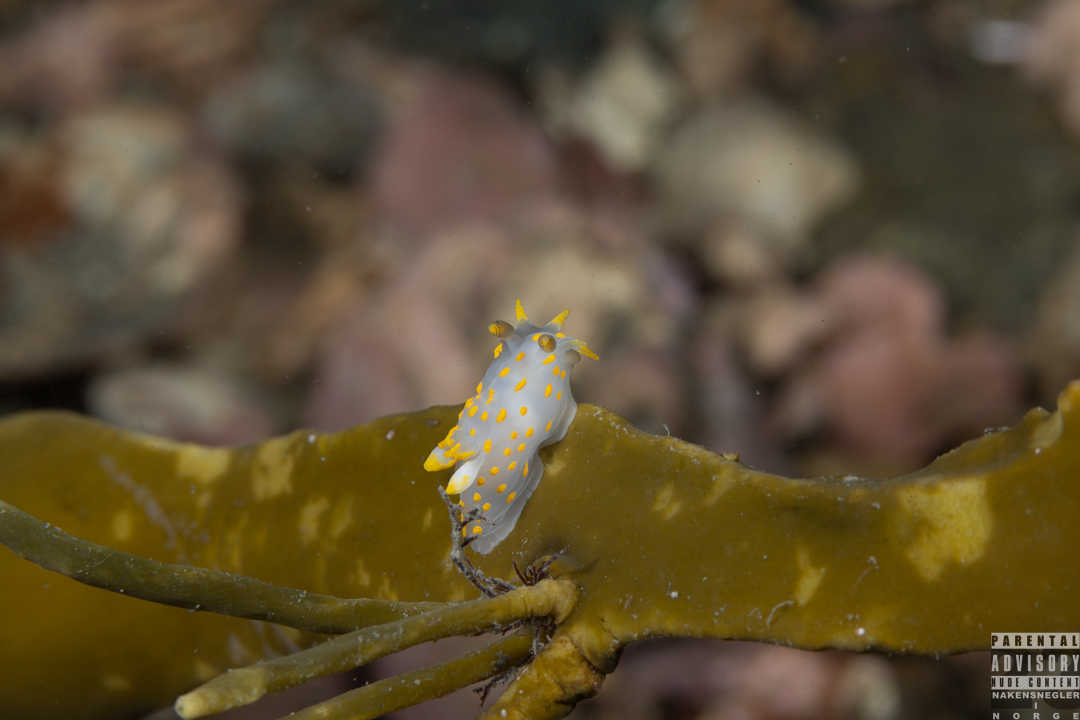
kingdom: Animalia
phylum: Mollusca
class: Gastropoda
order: Nudibranchia
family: Polyceridae
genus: Polycera
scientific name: Polycera quadrilineata
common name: Four-striped polycera
